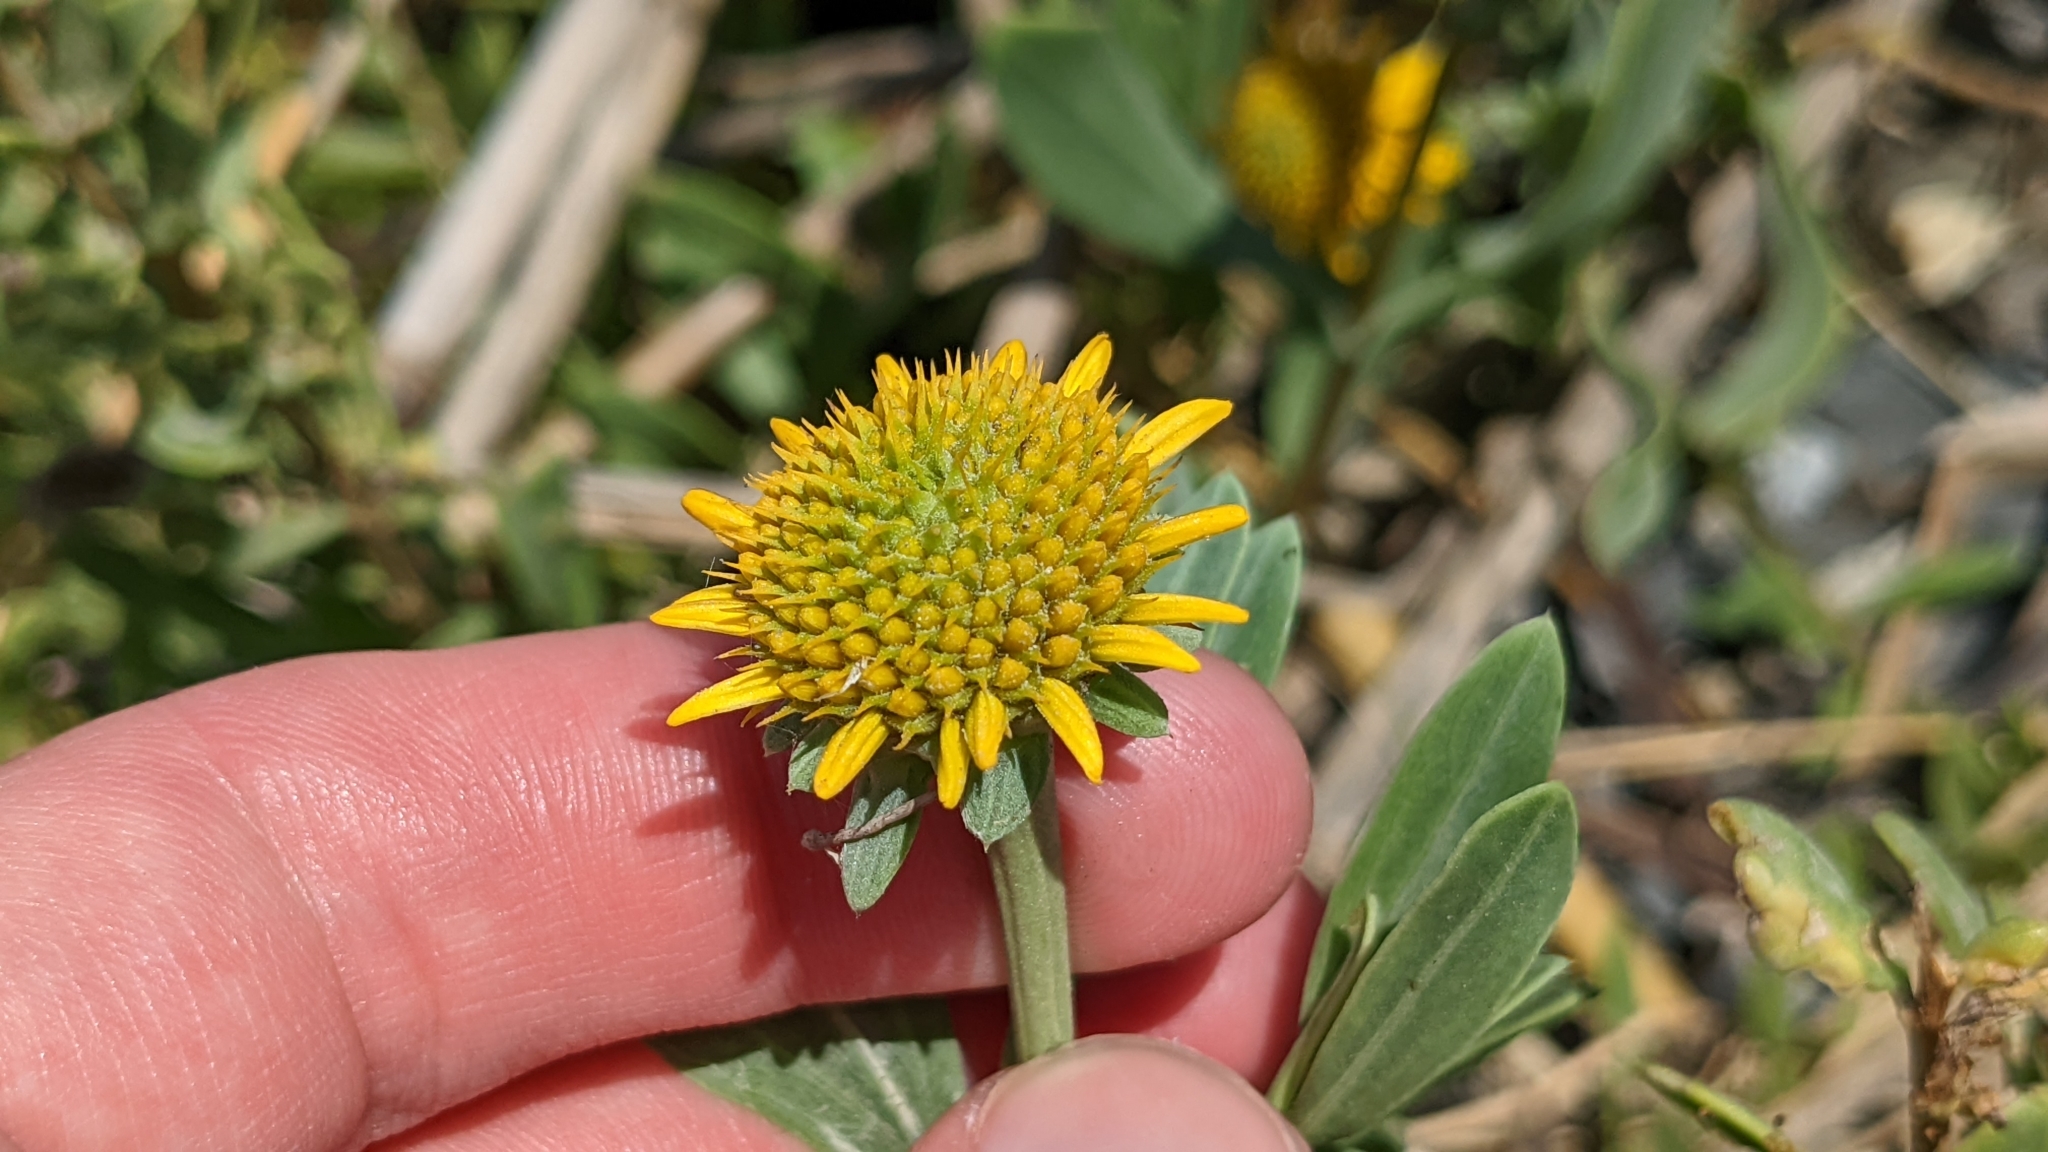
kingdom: Plantae
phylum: Tracheophyta
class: Magnoliopsida
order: Asterales
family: Asteraceae
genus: Borrichia
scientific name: Borrichia frutescens
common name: Sea oxeye
